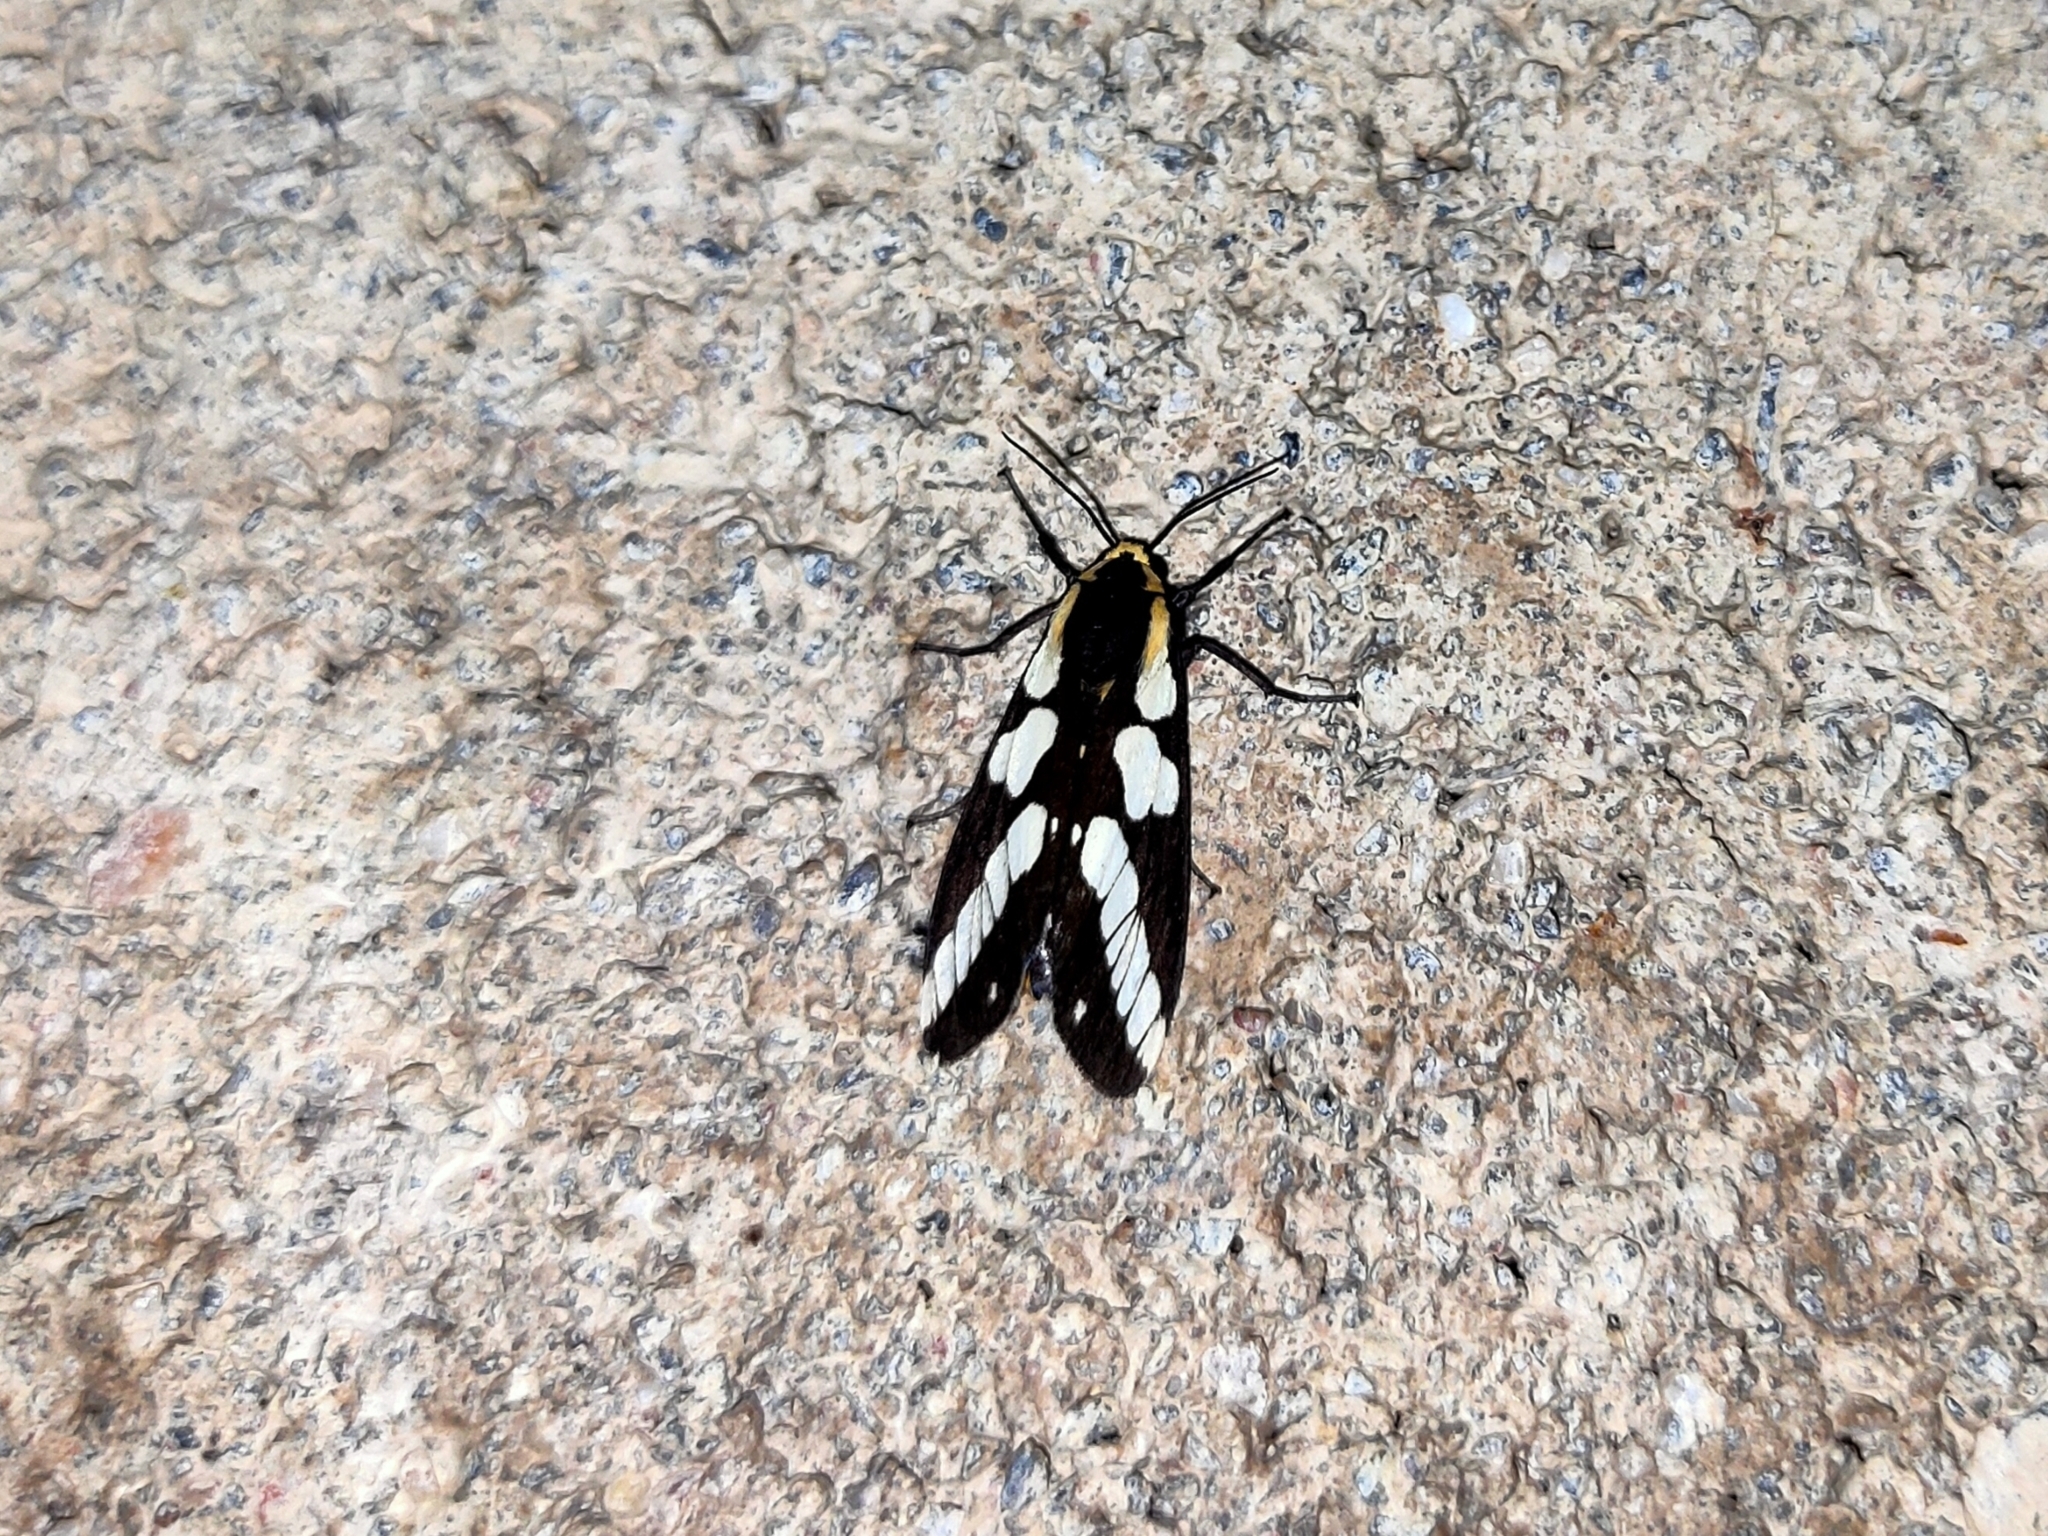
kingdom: Animalia
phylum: Arthropoda
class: Insecta
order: Lepidoptera
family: Erebidae
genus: Nannoarctia
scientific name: Nannoarctia
